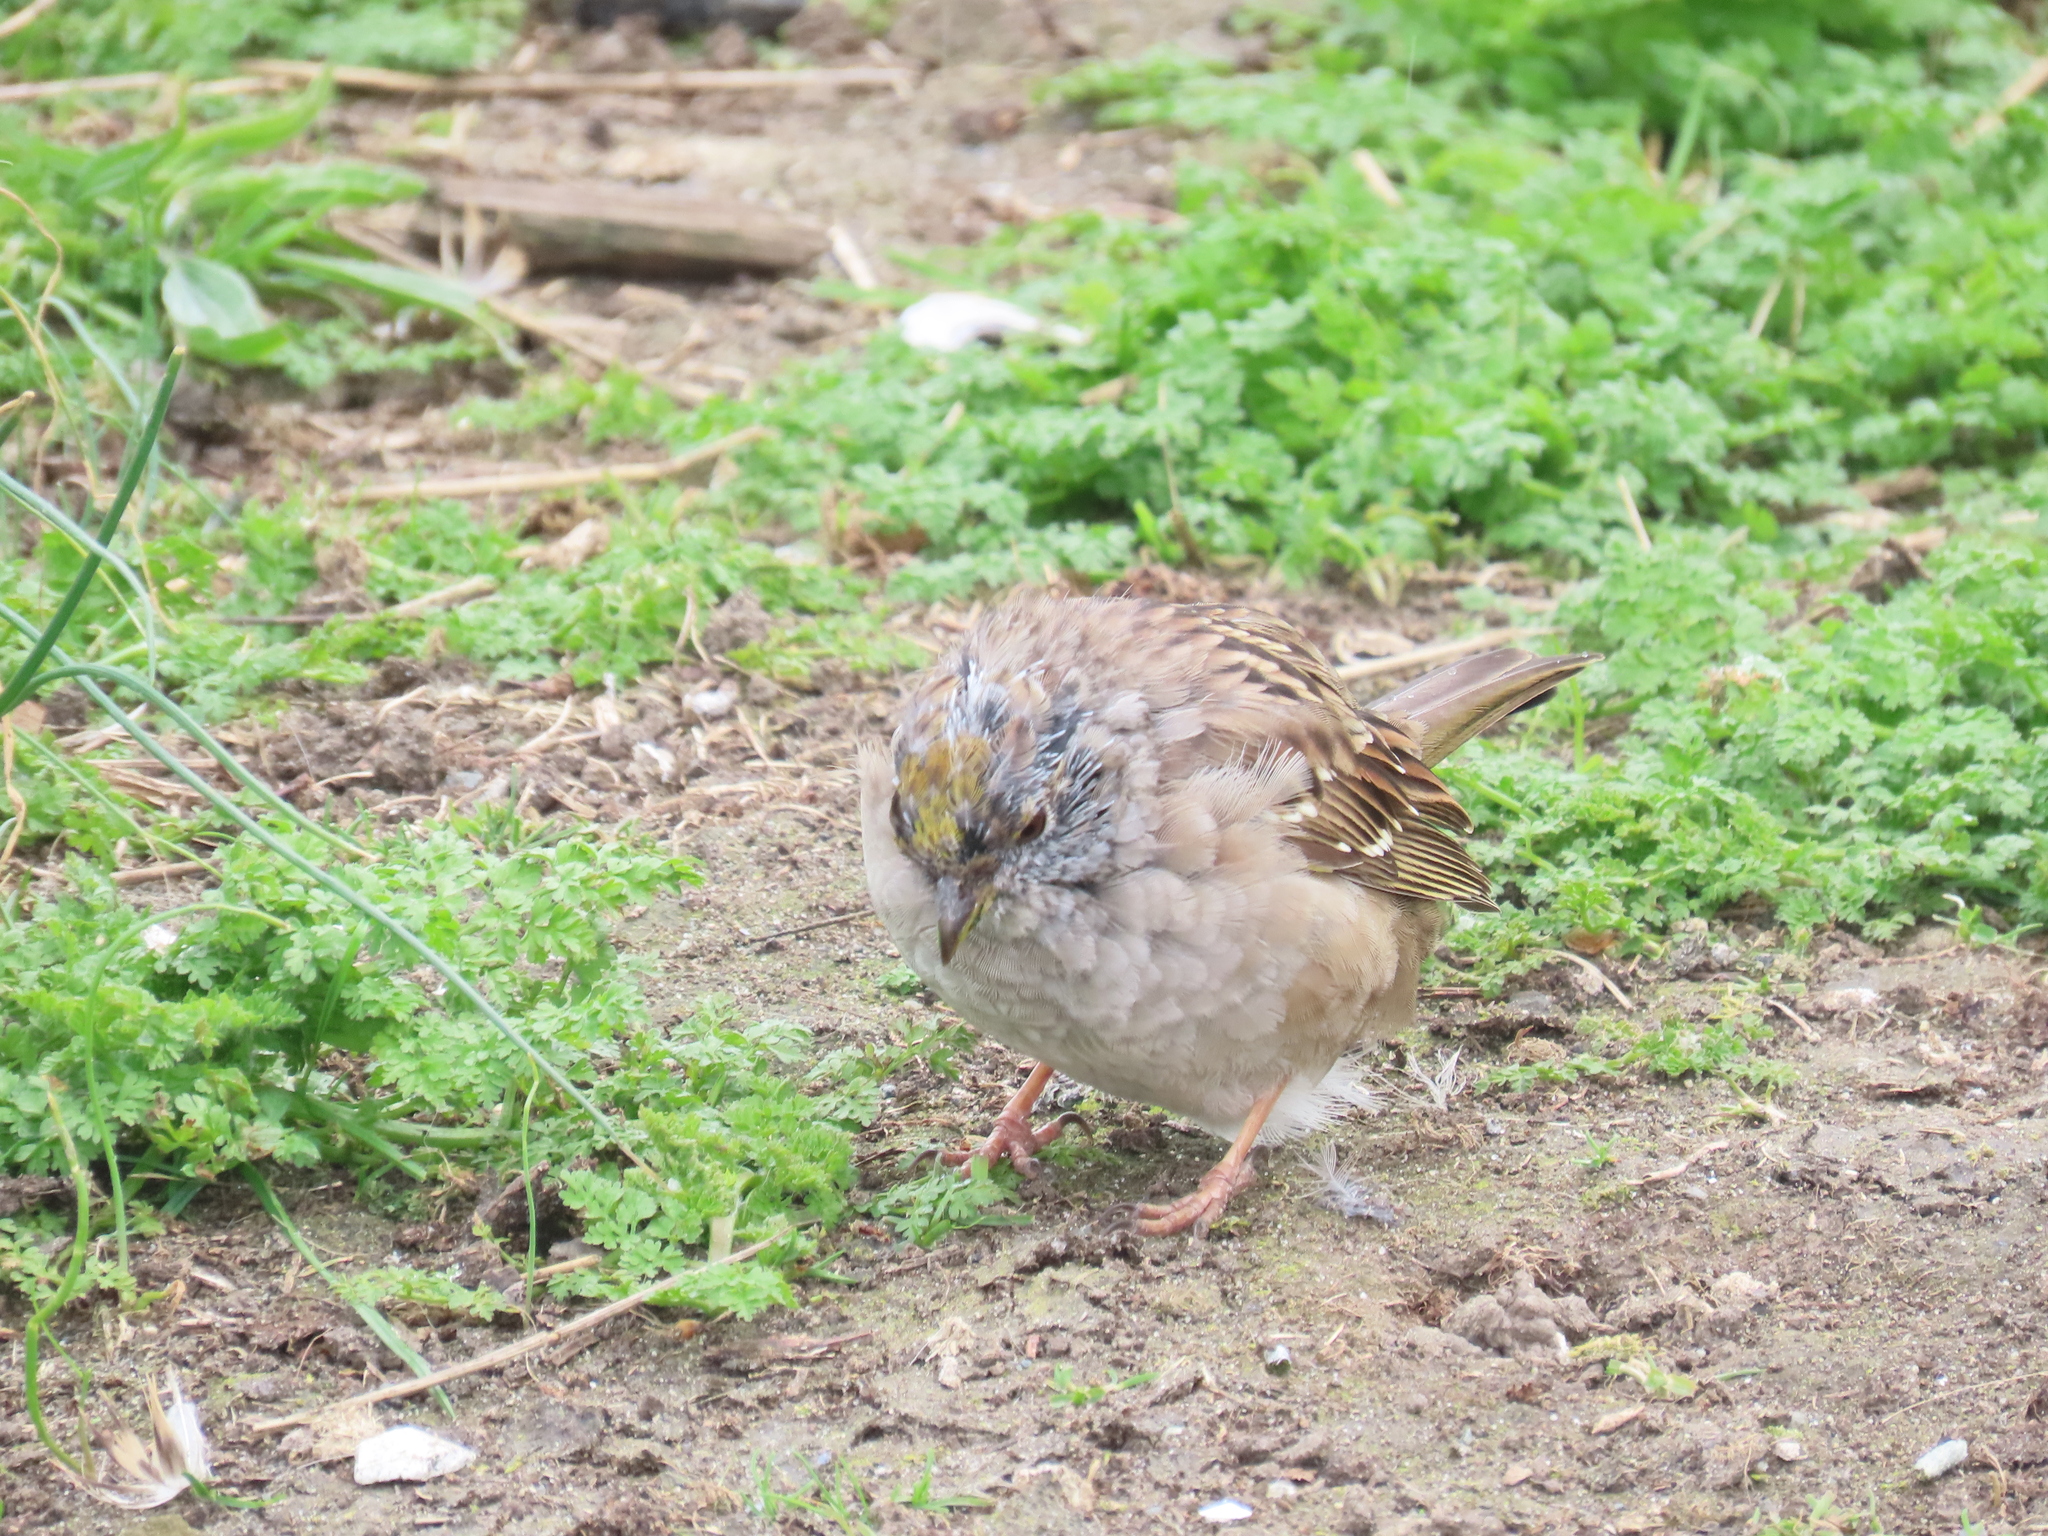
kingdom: Animalia
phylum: Chordata
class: Aves
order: Passeriformes
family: Passerellidae
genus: Zonotrichia
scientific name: Zonotrichia atricapilla
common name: Golden-crowned sparrow
